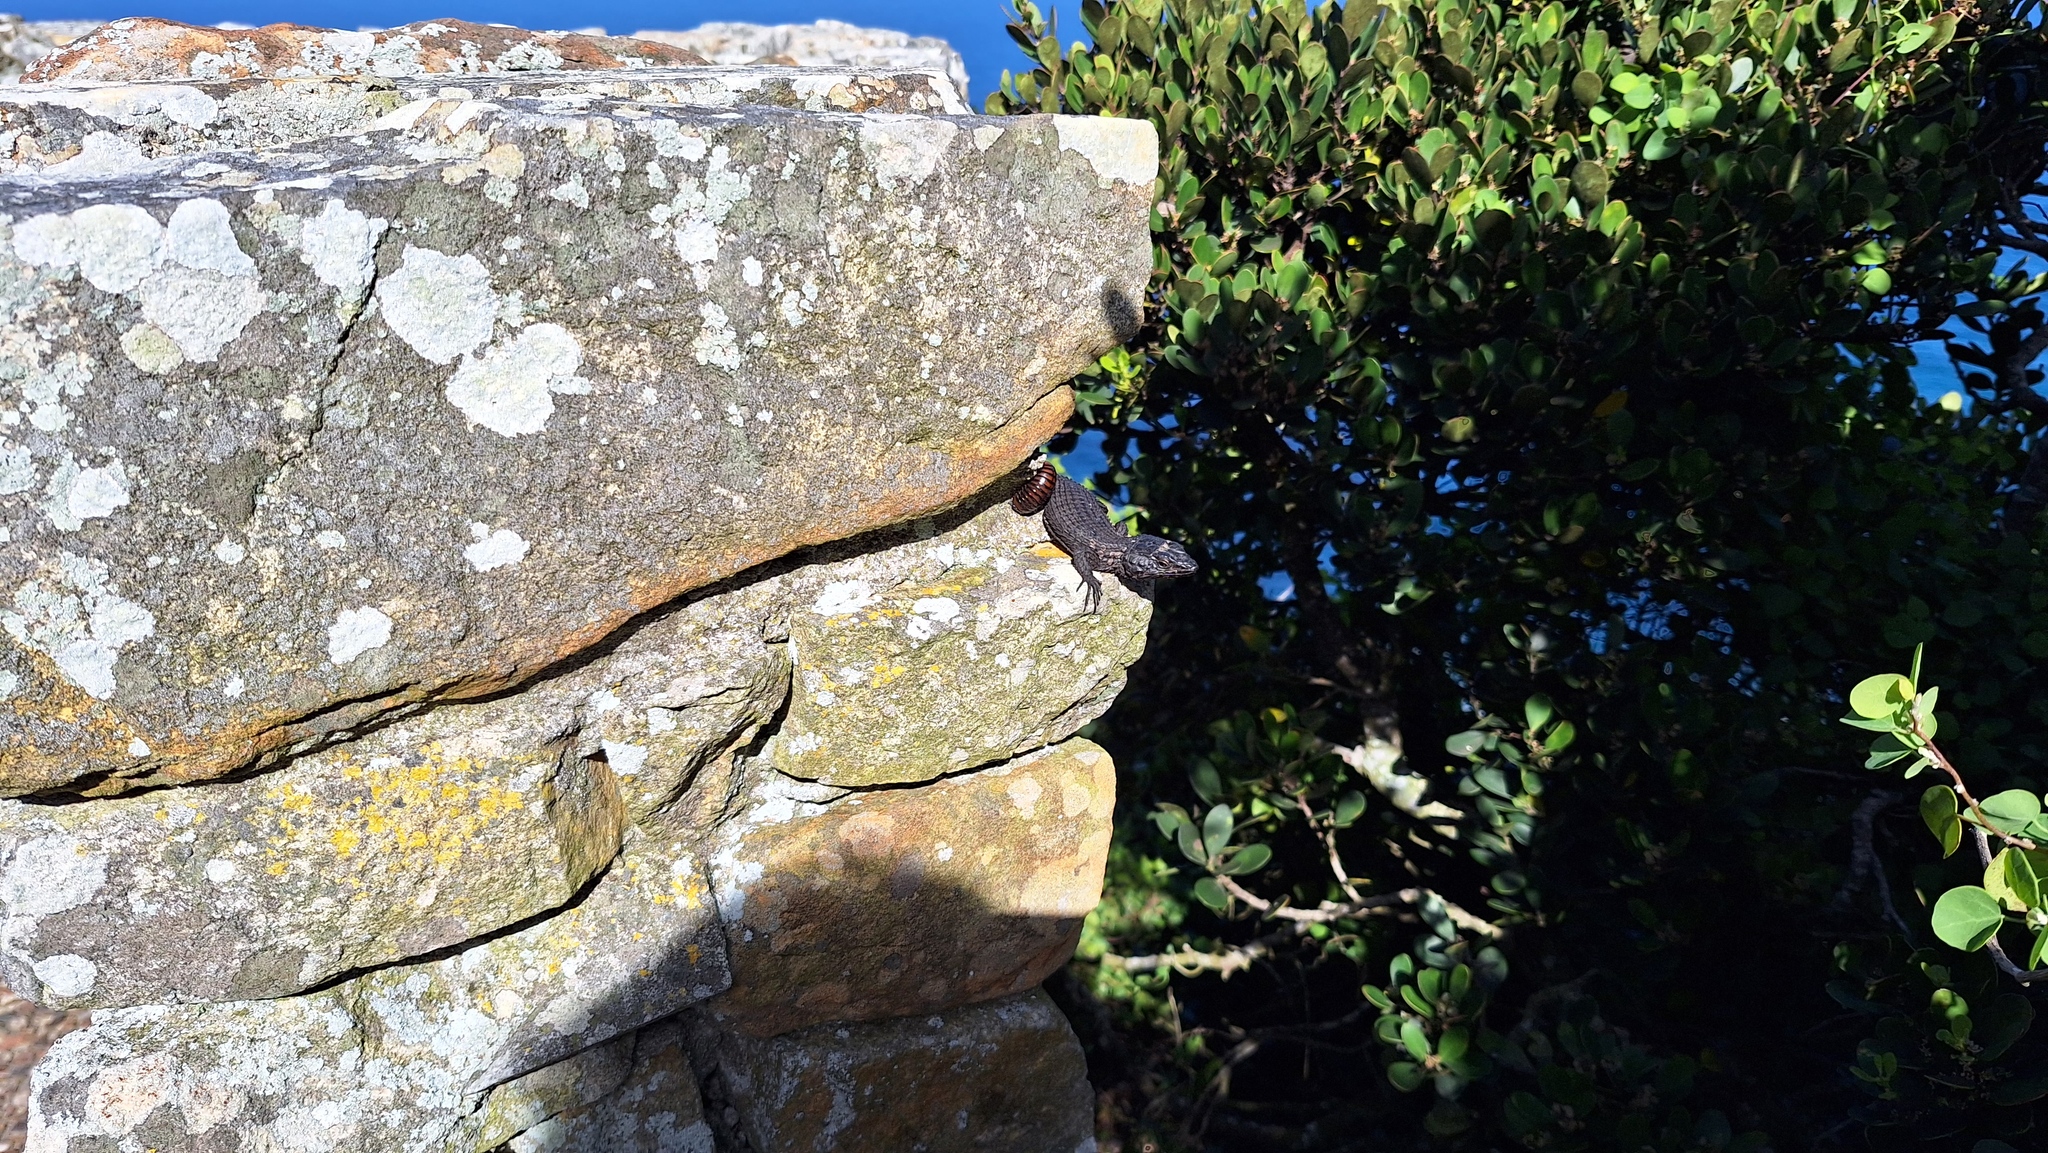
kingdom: Animalia
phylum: Chordata
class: Squamata
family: Cordylidae
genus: Cordylus
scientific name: Cordylus niger
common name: Black girdled lizard
